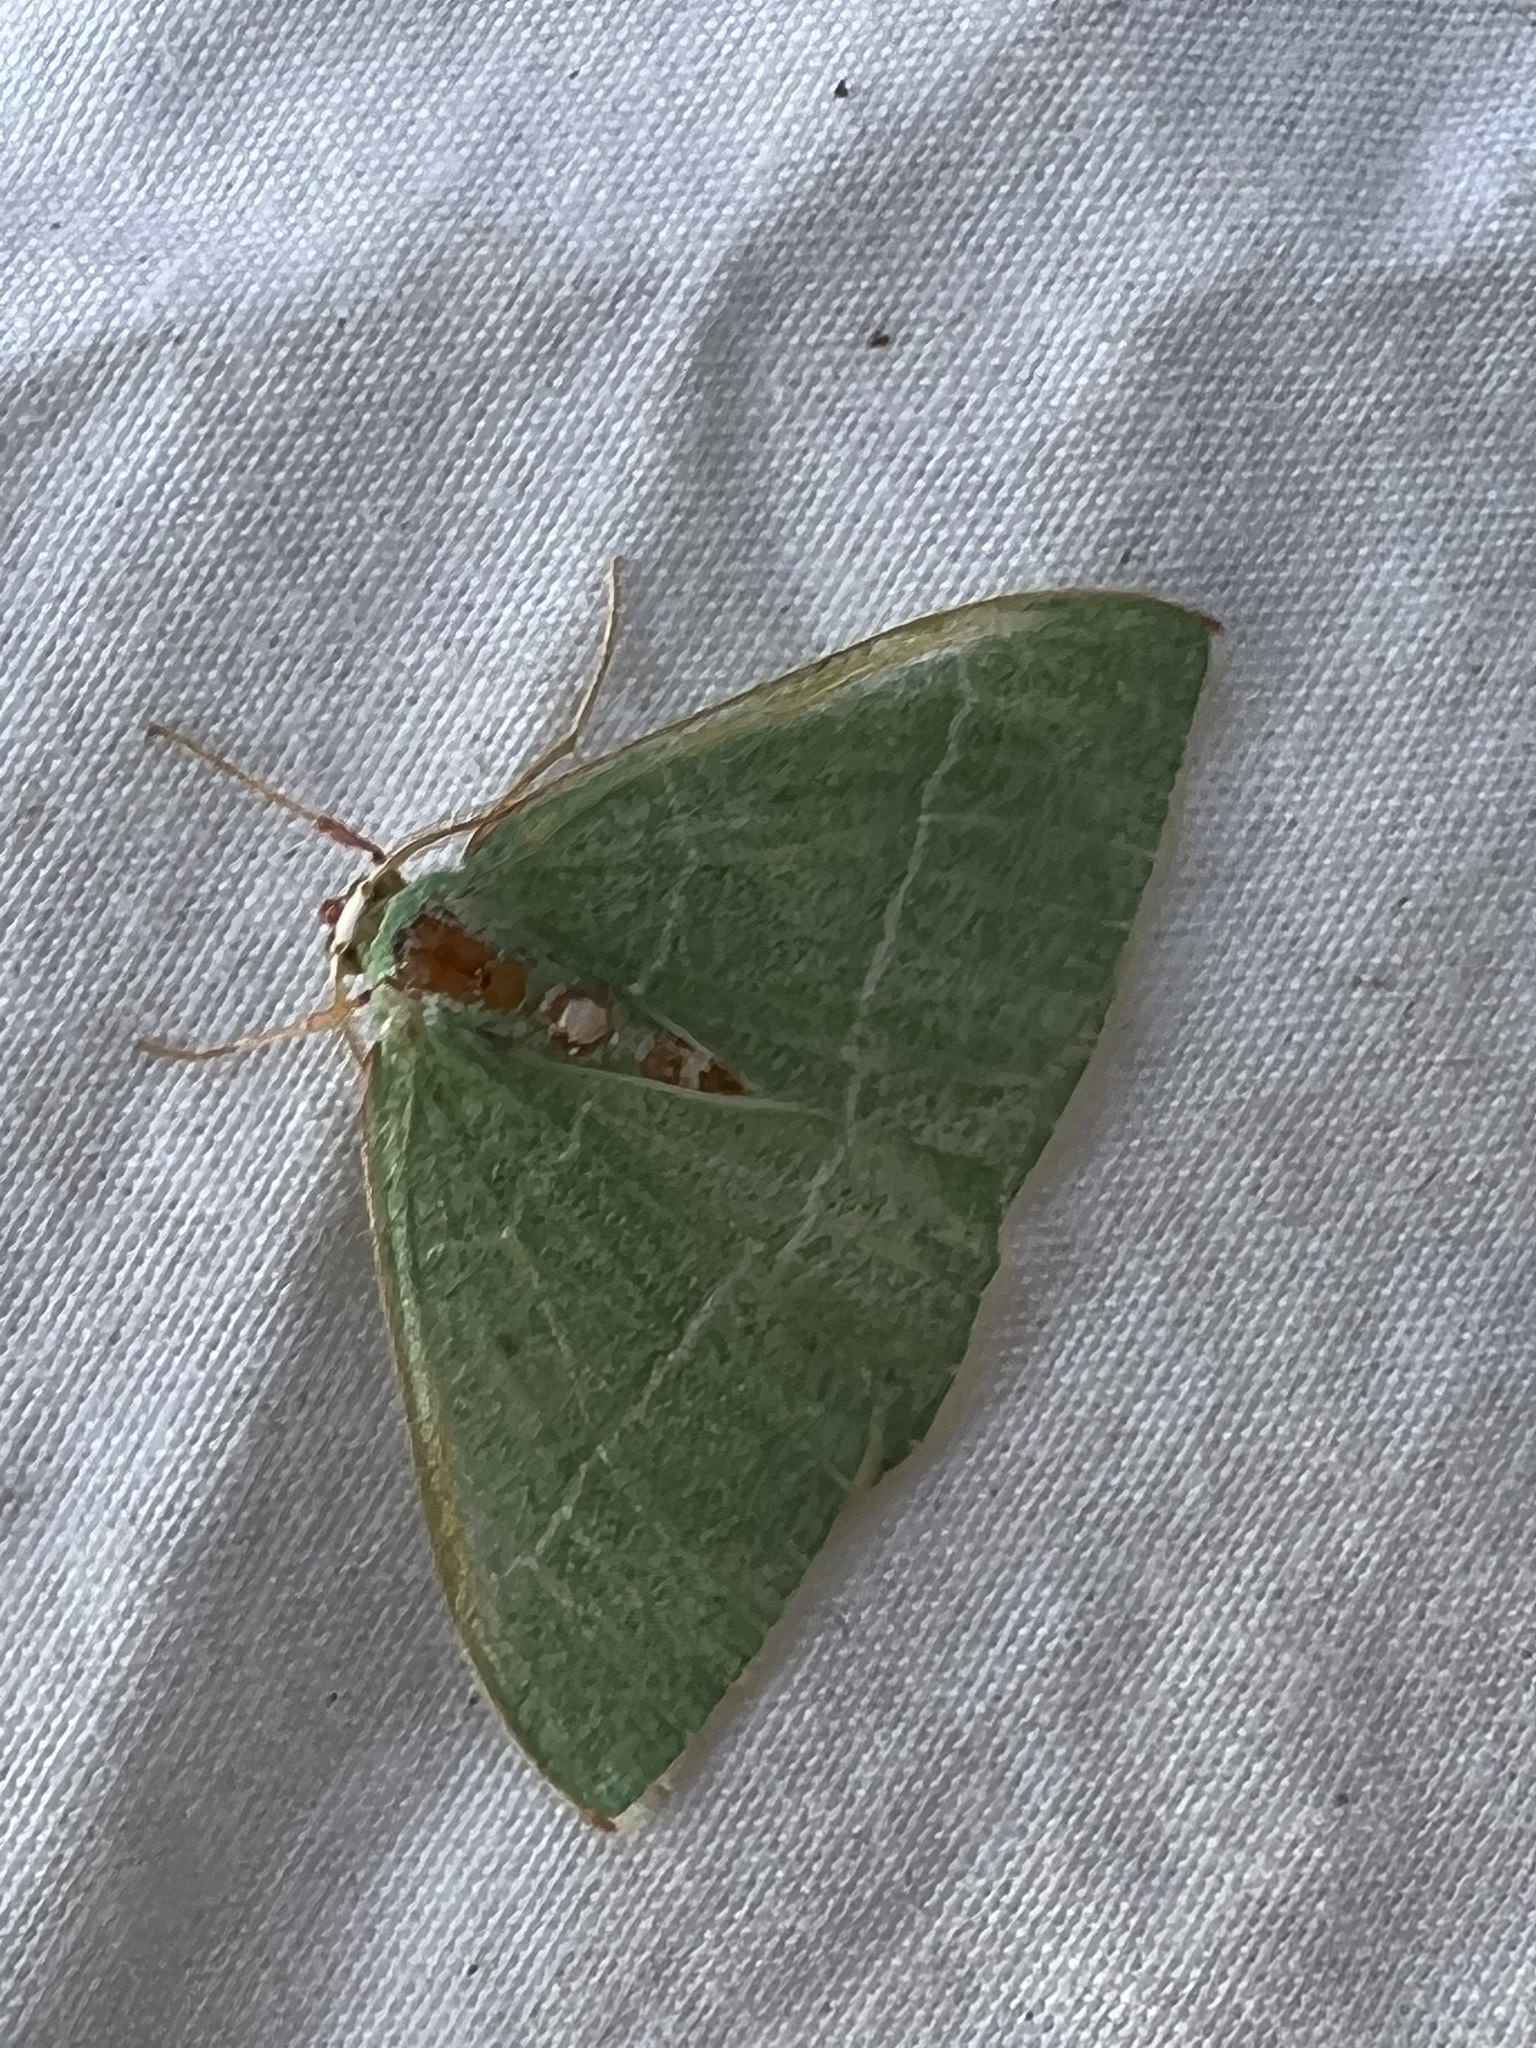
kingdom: Animalia
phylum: Arthropoda
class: Insecta
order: Lepidoptera
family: Geometridae
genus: Nemoria
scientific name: Nemoria glaucomarginaria
